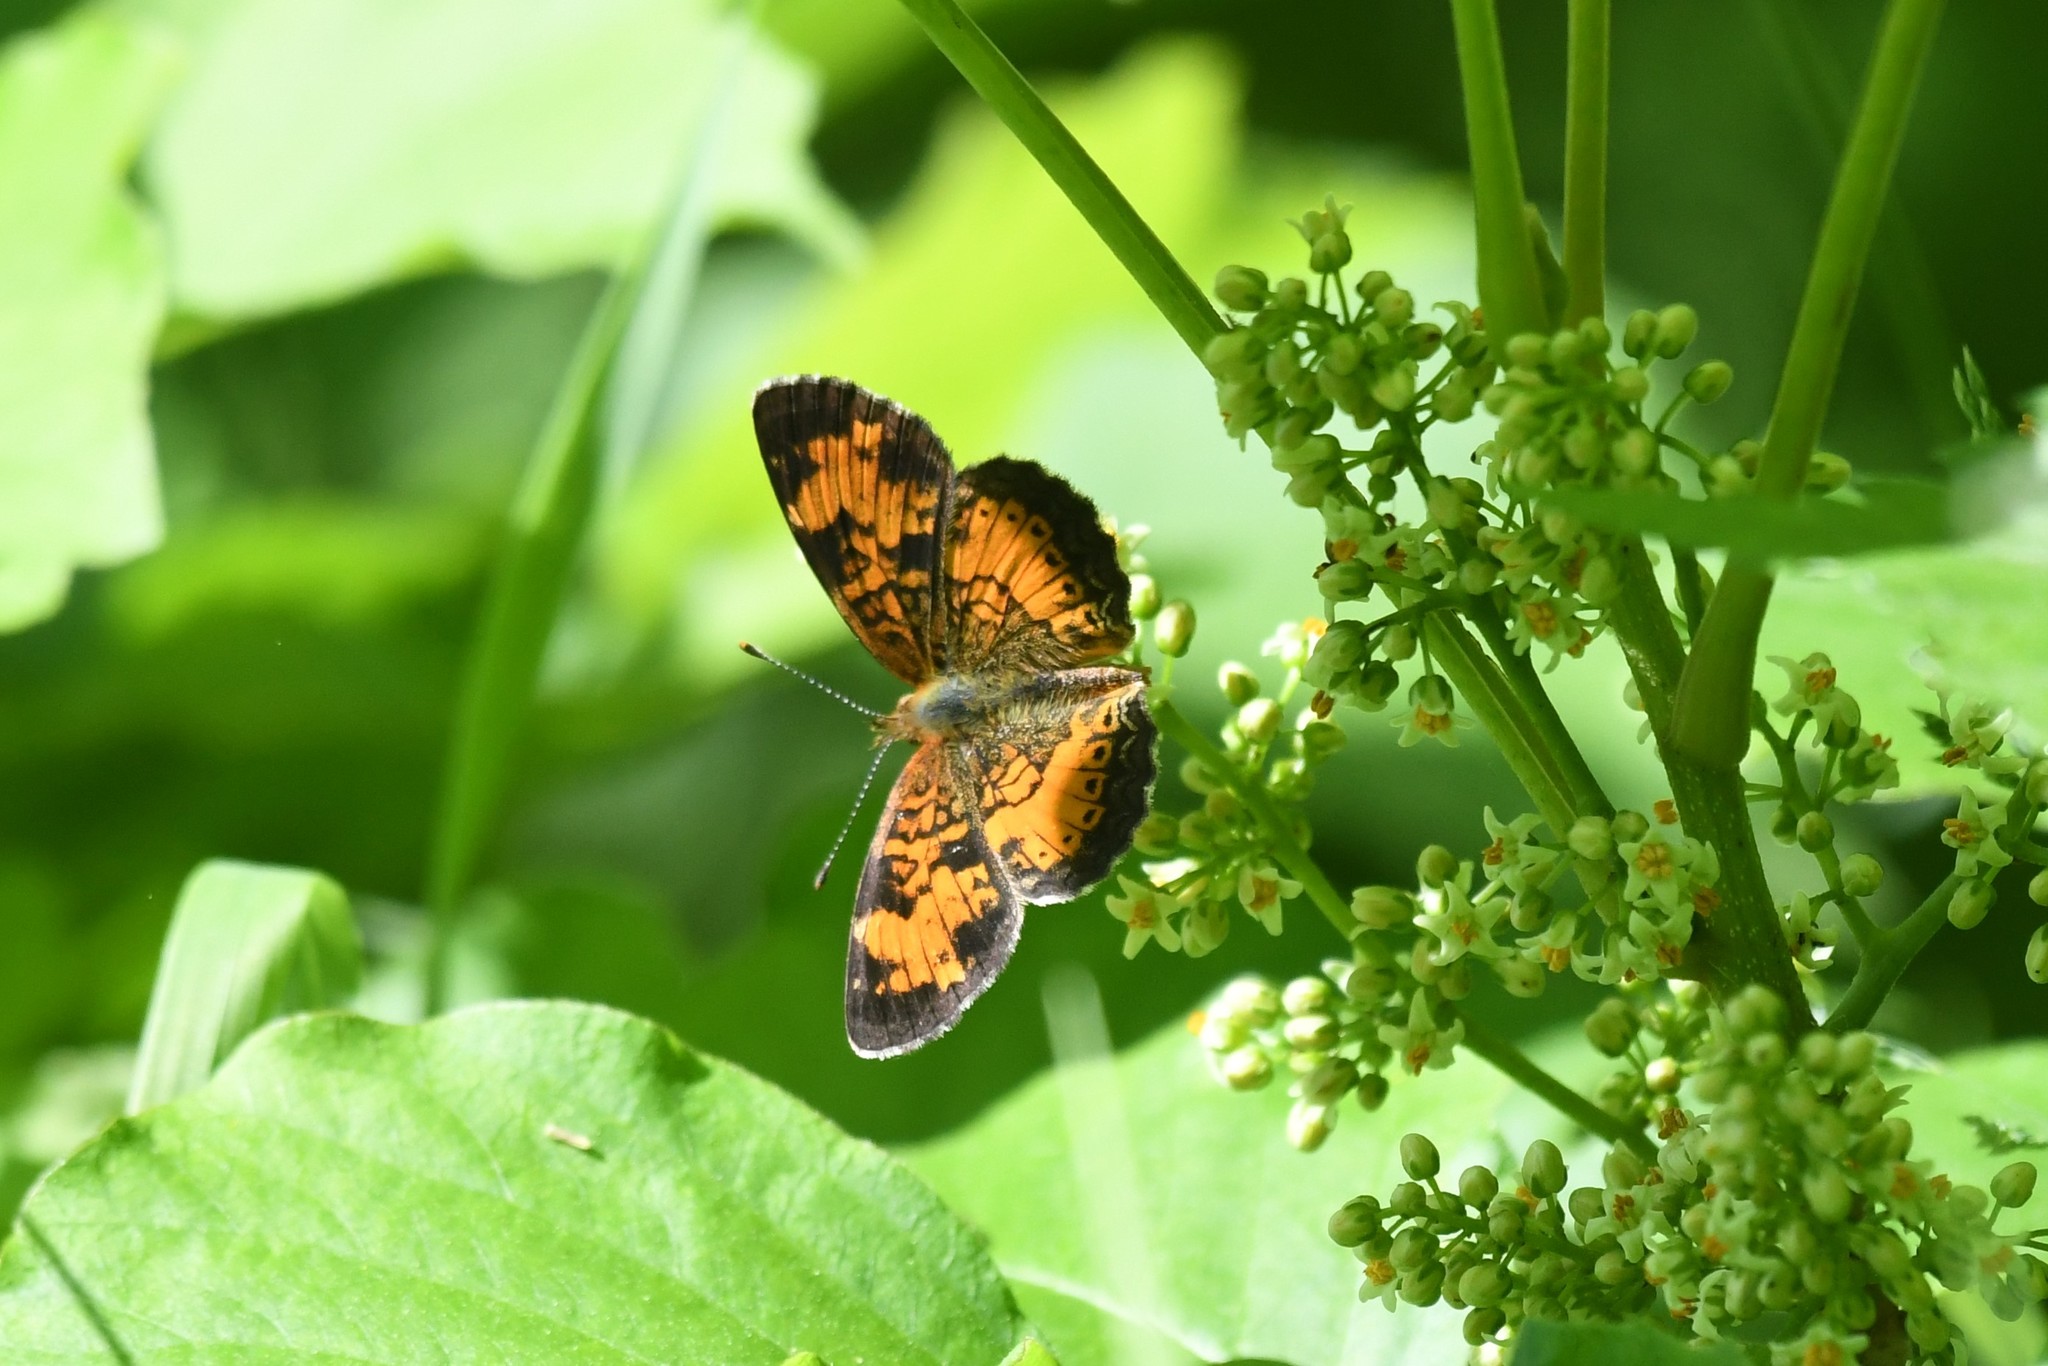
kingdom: Animalia
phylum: Arthropoda
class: Insecta
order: Lepidoptera
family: Nymphalidae
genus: Phyciodes
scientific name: Phyciodes tharos
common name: Pearl crescent
